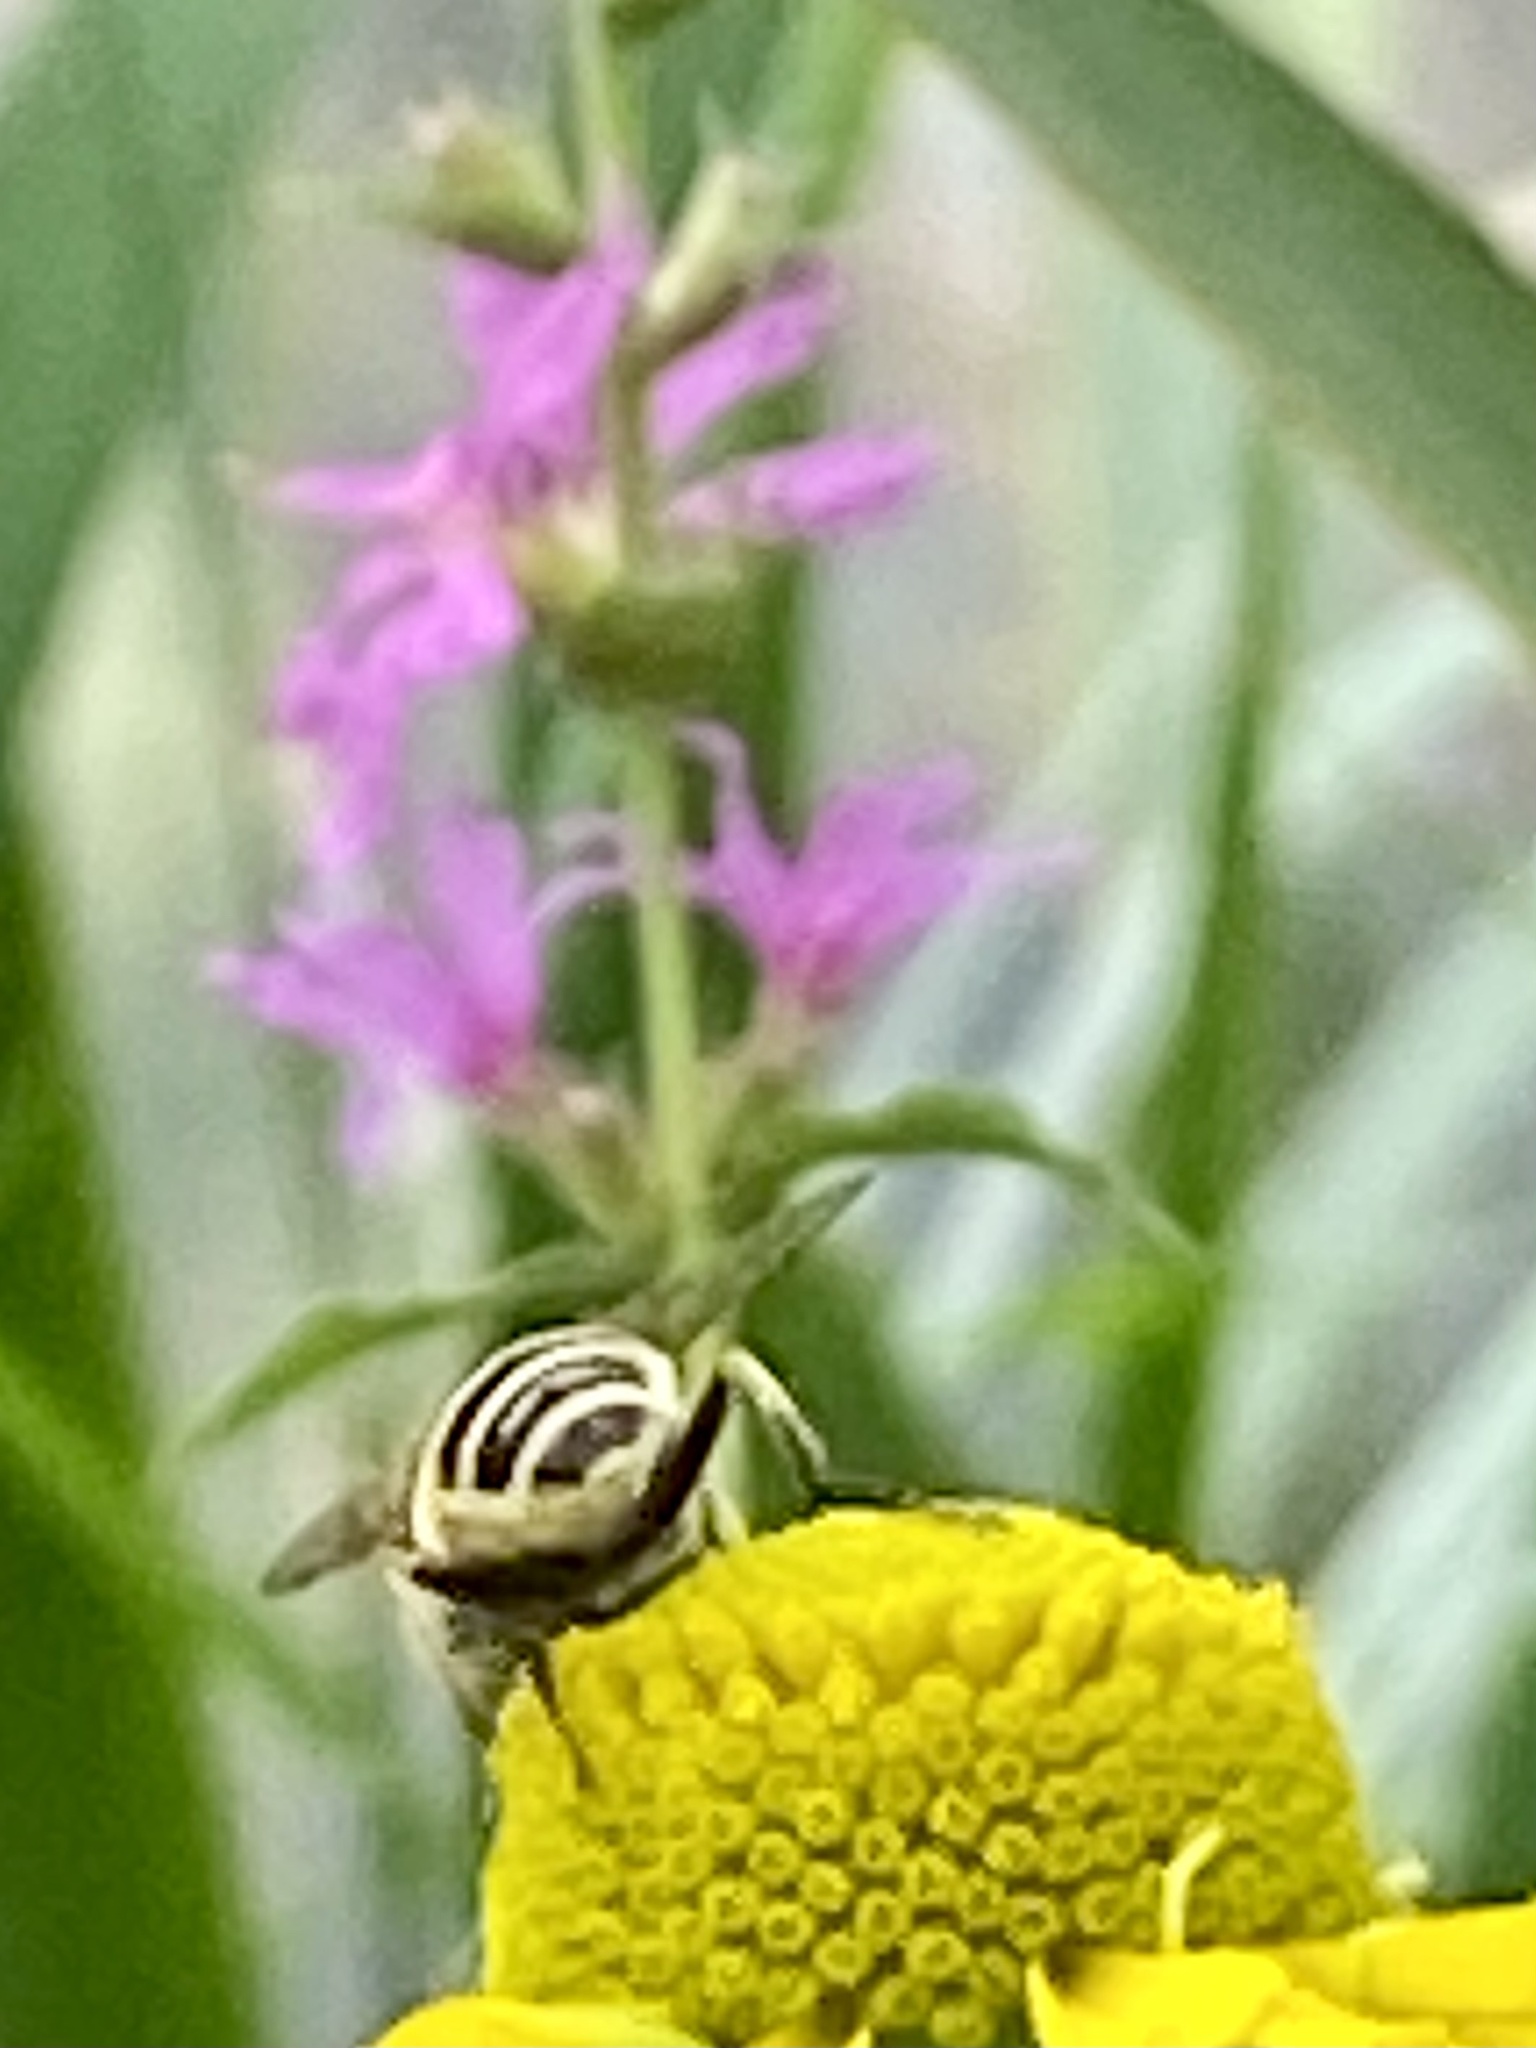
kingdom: Animalia
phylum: Arthropoda
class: Insecta
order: Diptera
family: Syrphidae
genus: Eristalis
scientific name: Eristalis arbustorum
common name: Hover fly
